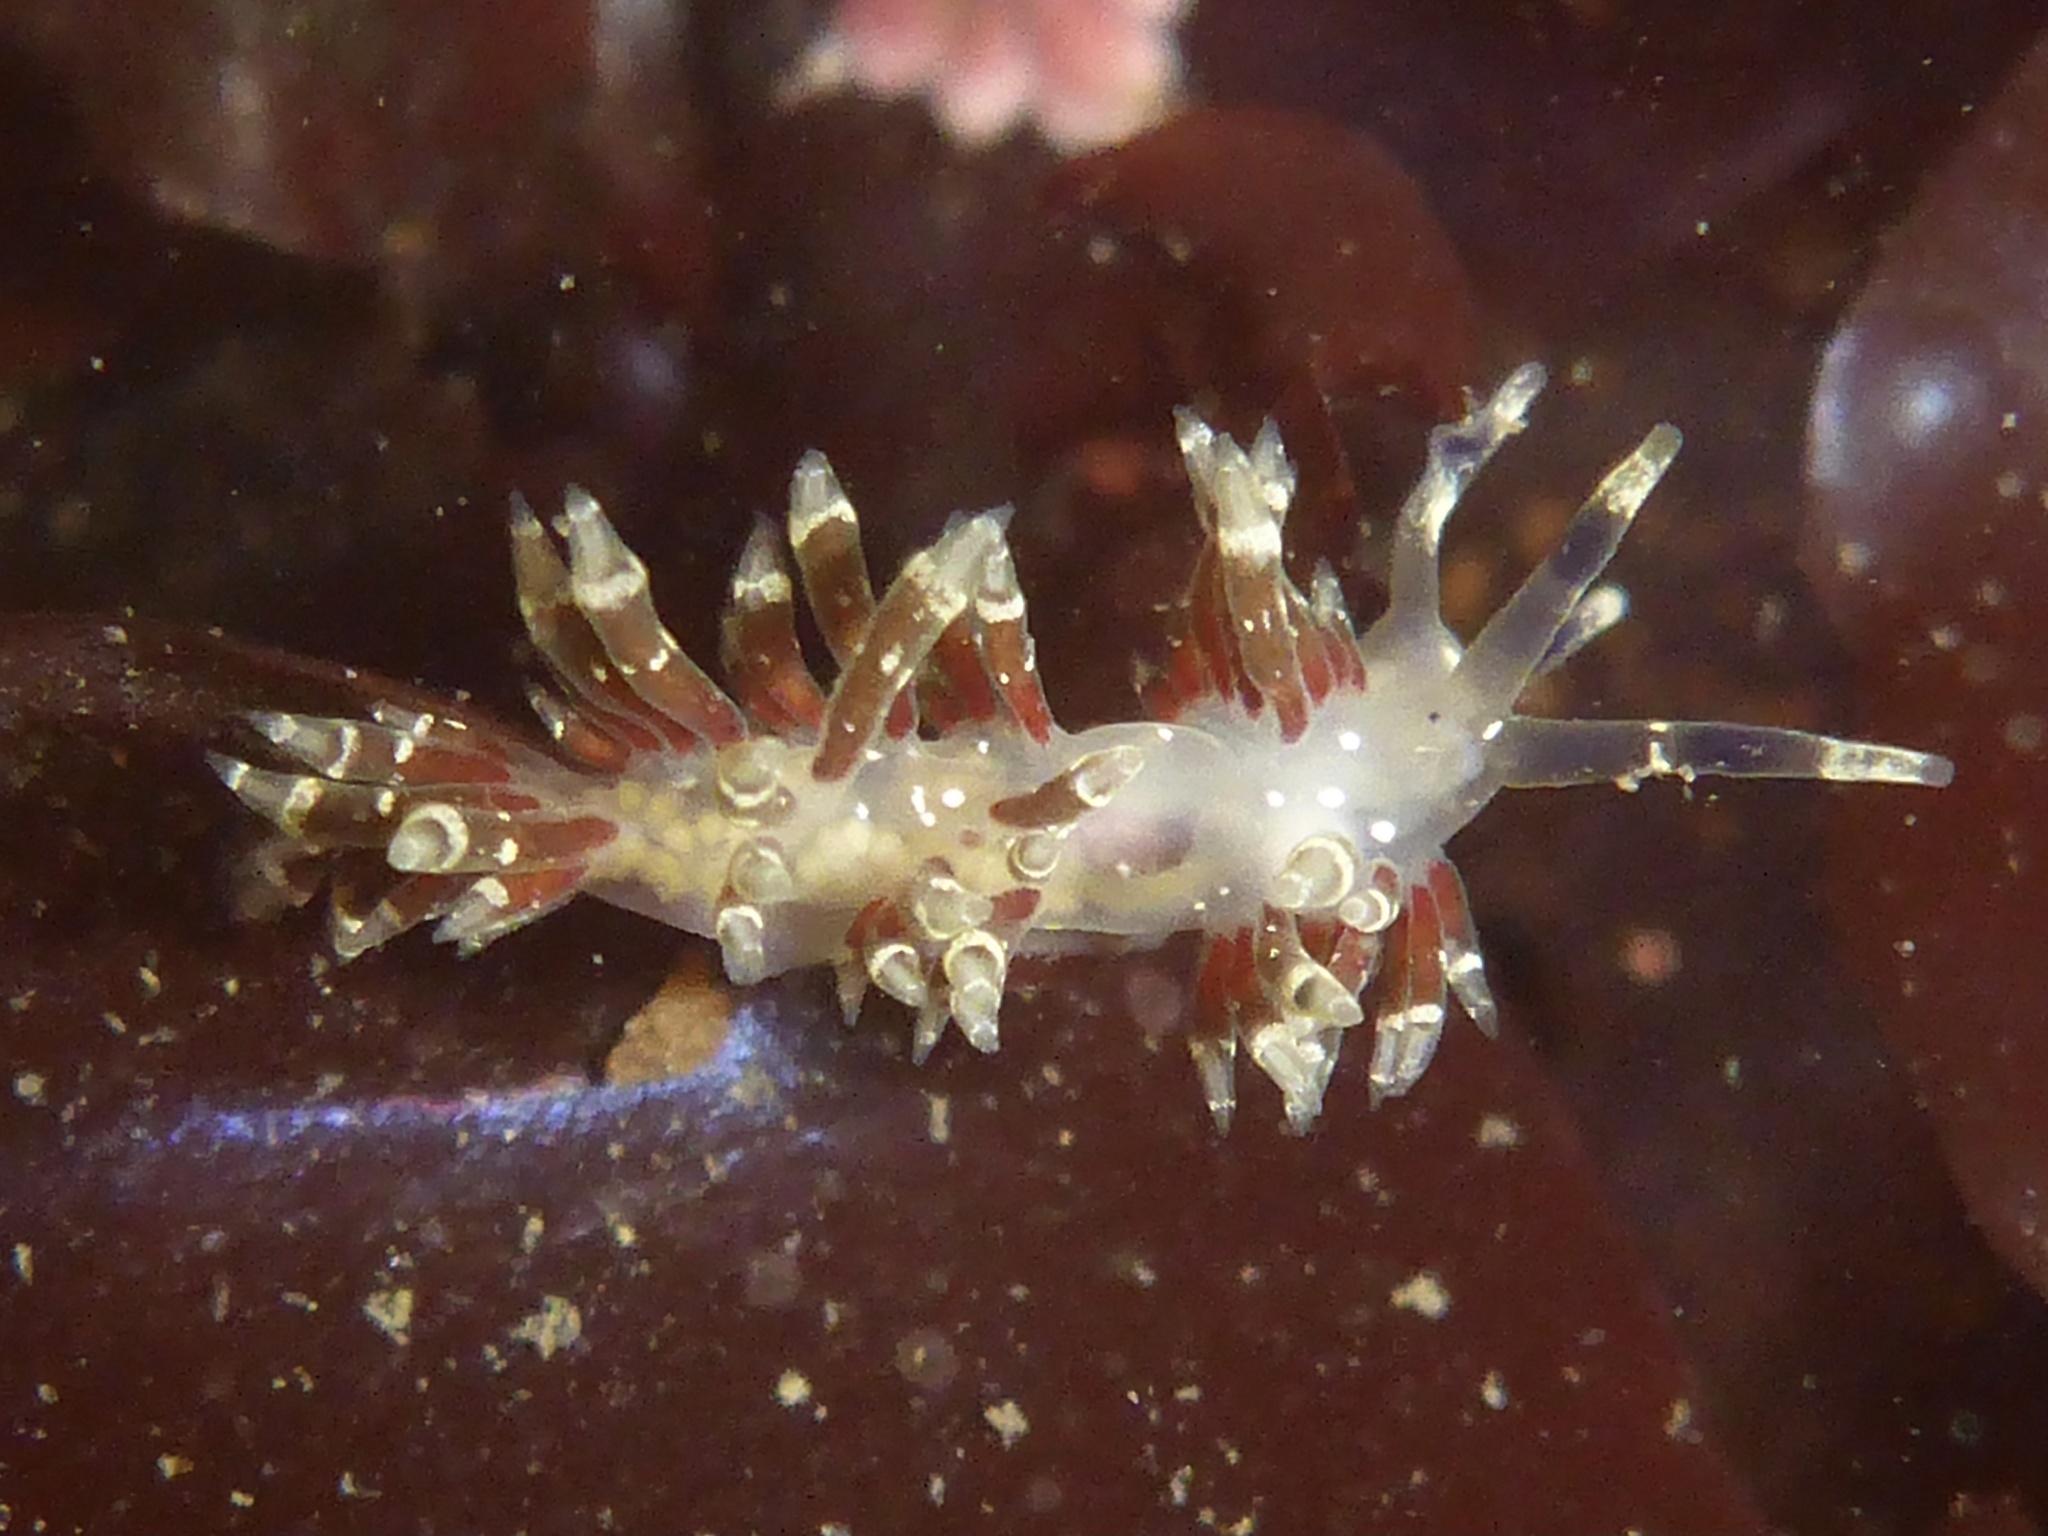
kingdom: Animalia
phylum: Mollusca
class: Gastropoda
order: Nudibranchia
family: Abronicidae
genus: Abronica
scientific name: Abronica abronia
